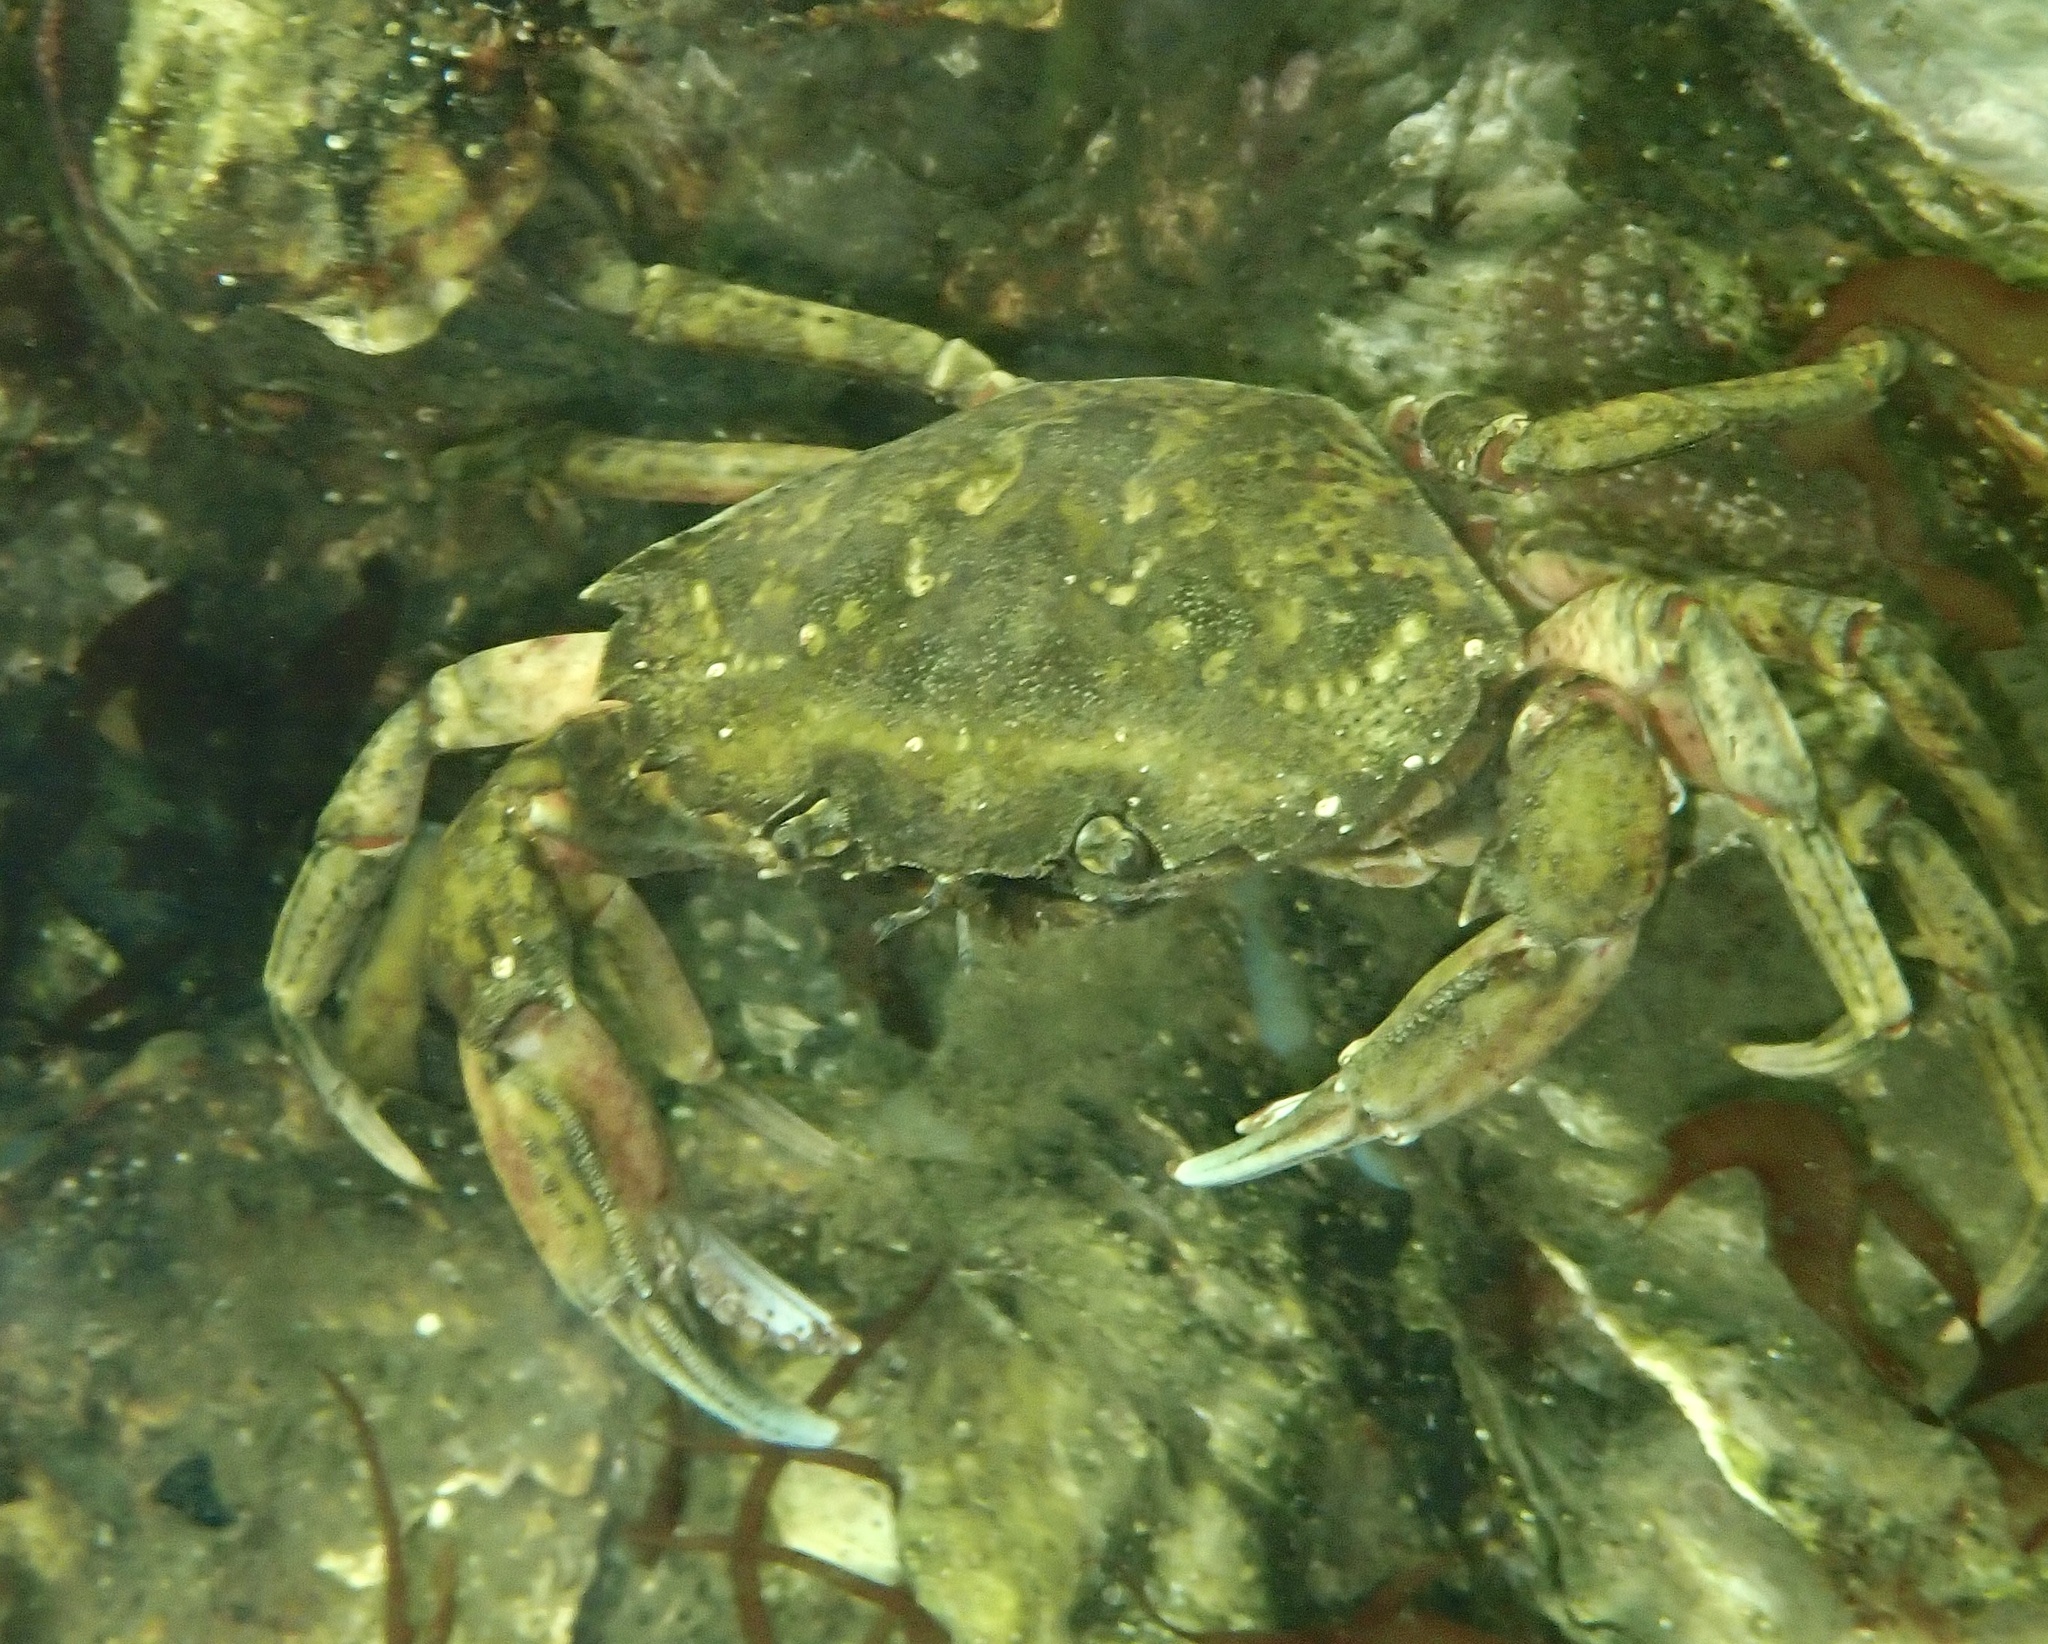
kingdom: Animalia
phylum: Arthropoda
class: Malacostraca
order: Decapoda
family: Carcinidae
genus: Carcinus
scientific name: Carcinus maenas
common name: European green crab
